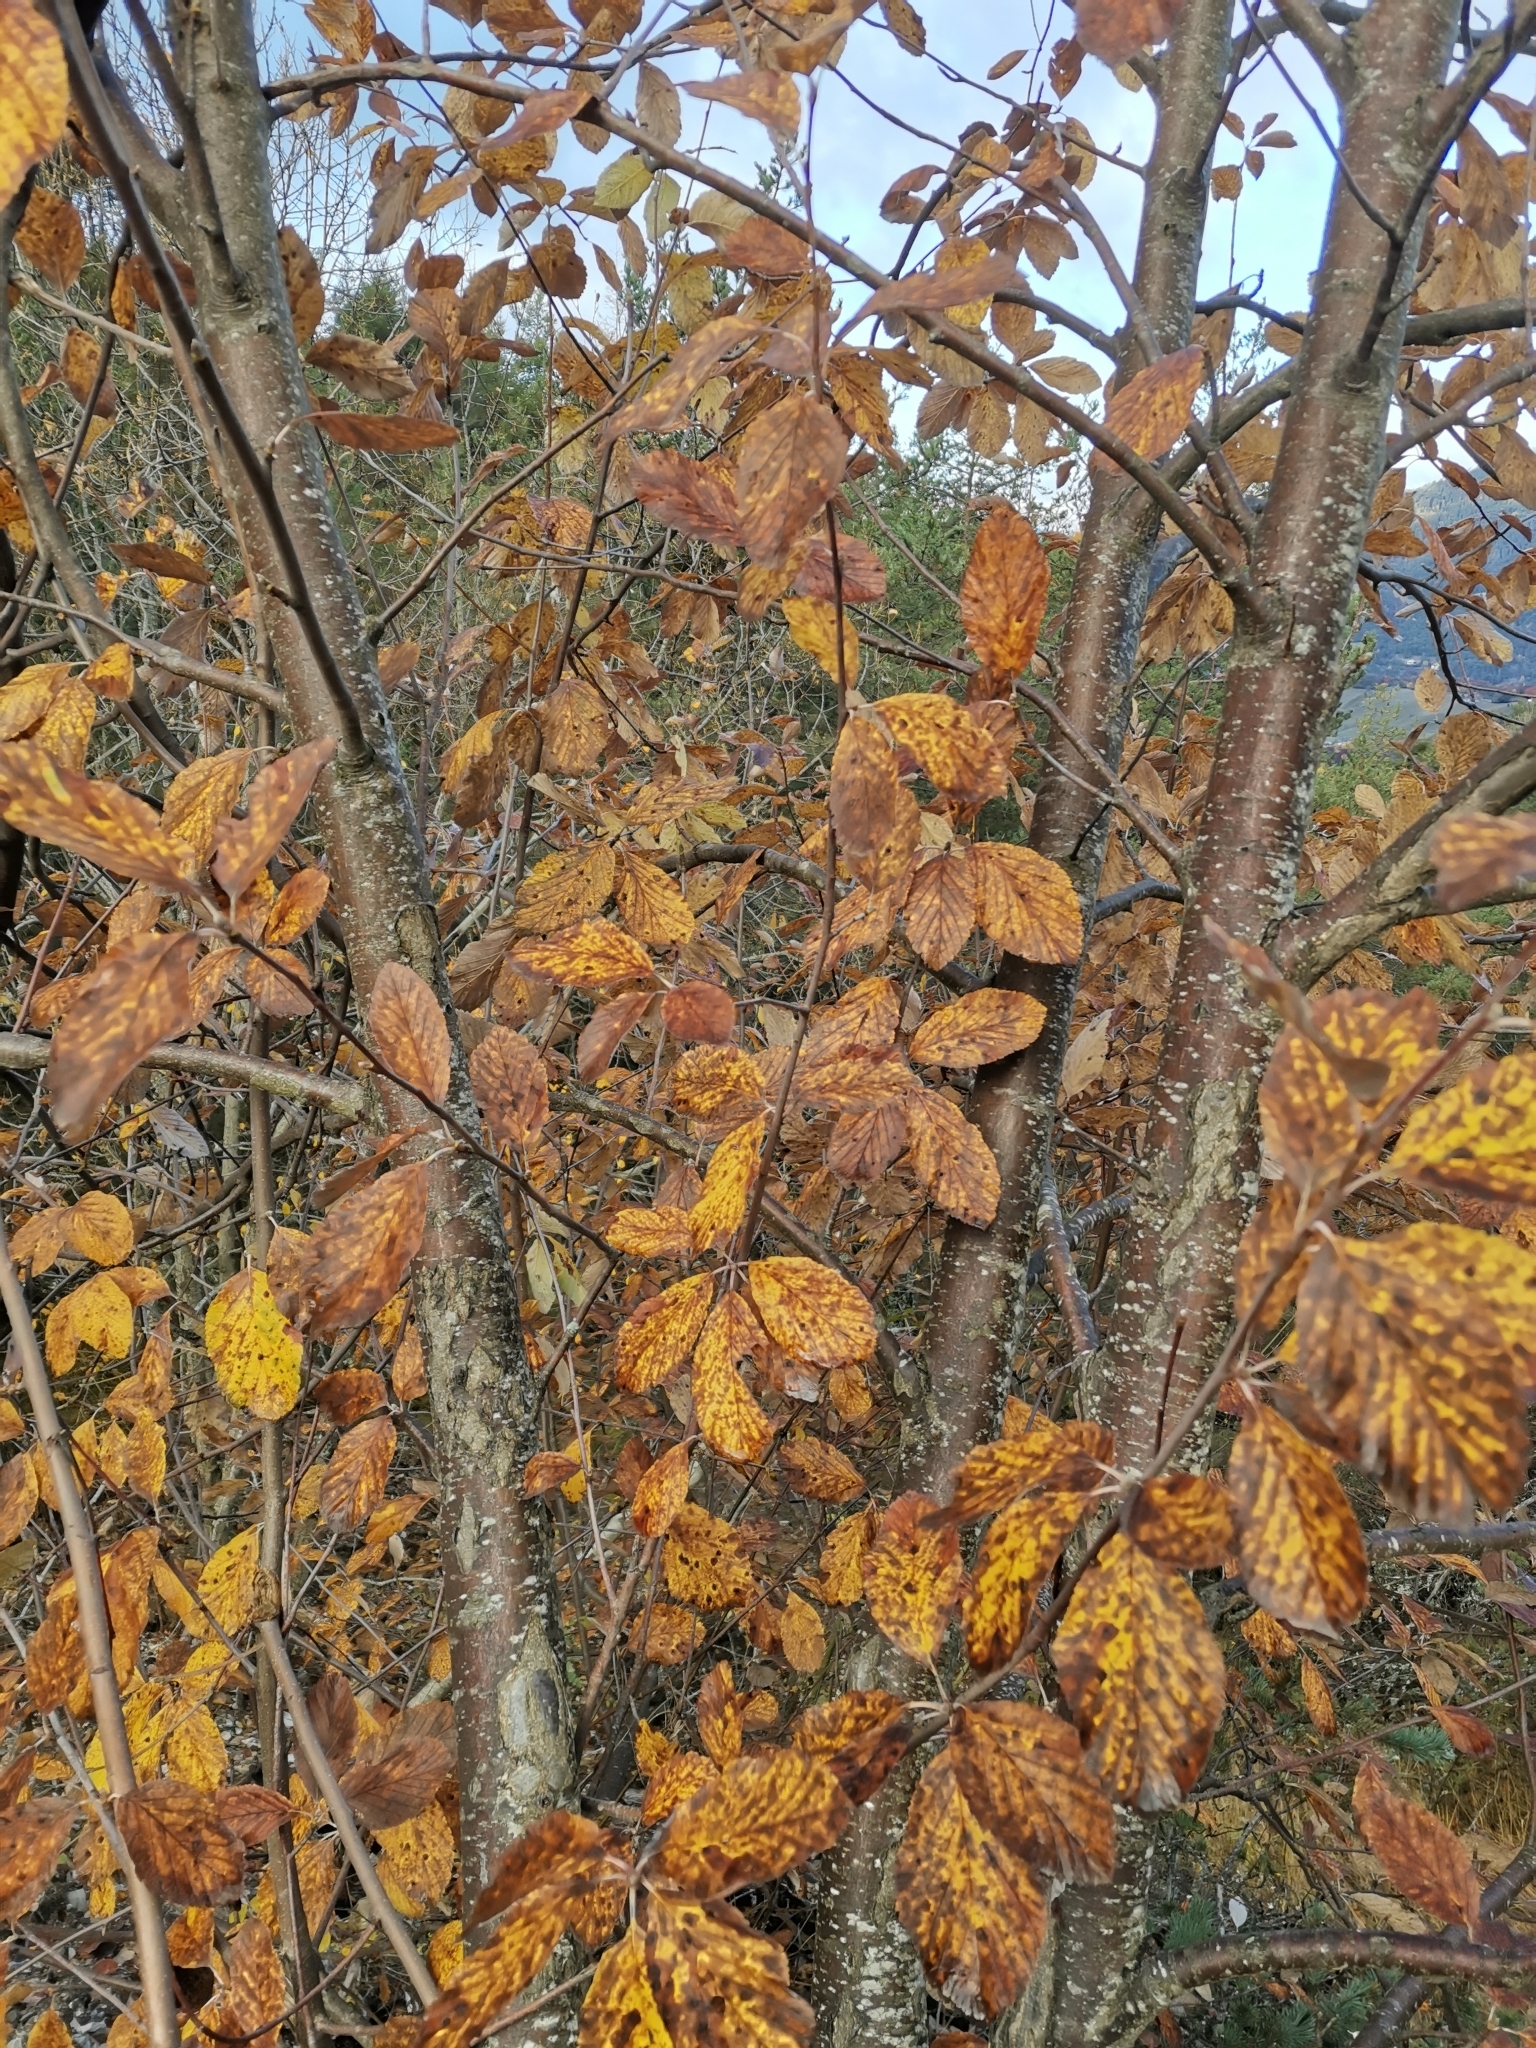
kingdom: Plantae
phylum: Tracheophyta
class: Magnoliopsida
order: Rosales
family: Rosaceae
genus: Aria
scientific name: Aria edulis
